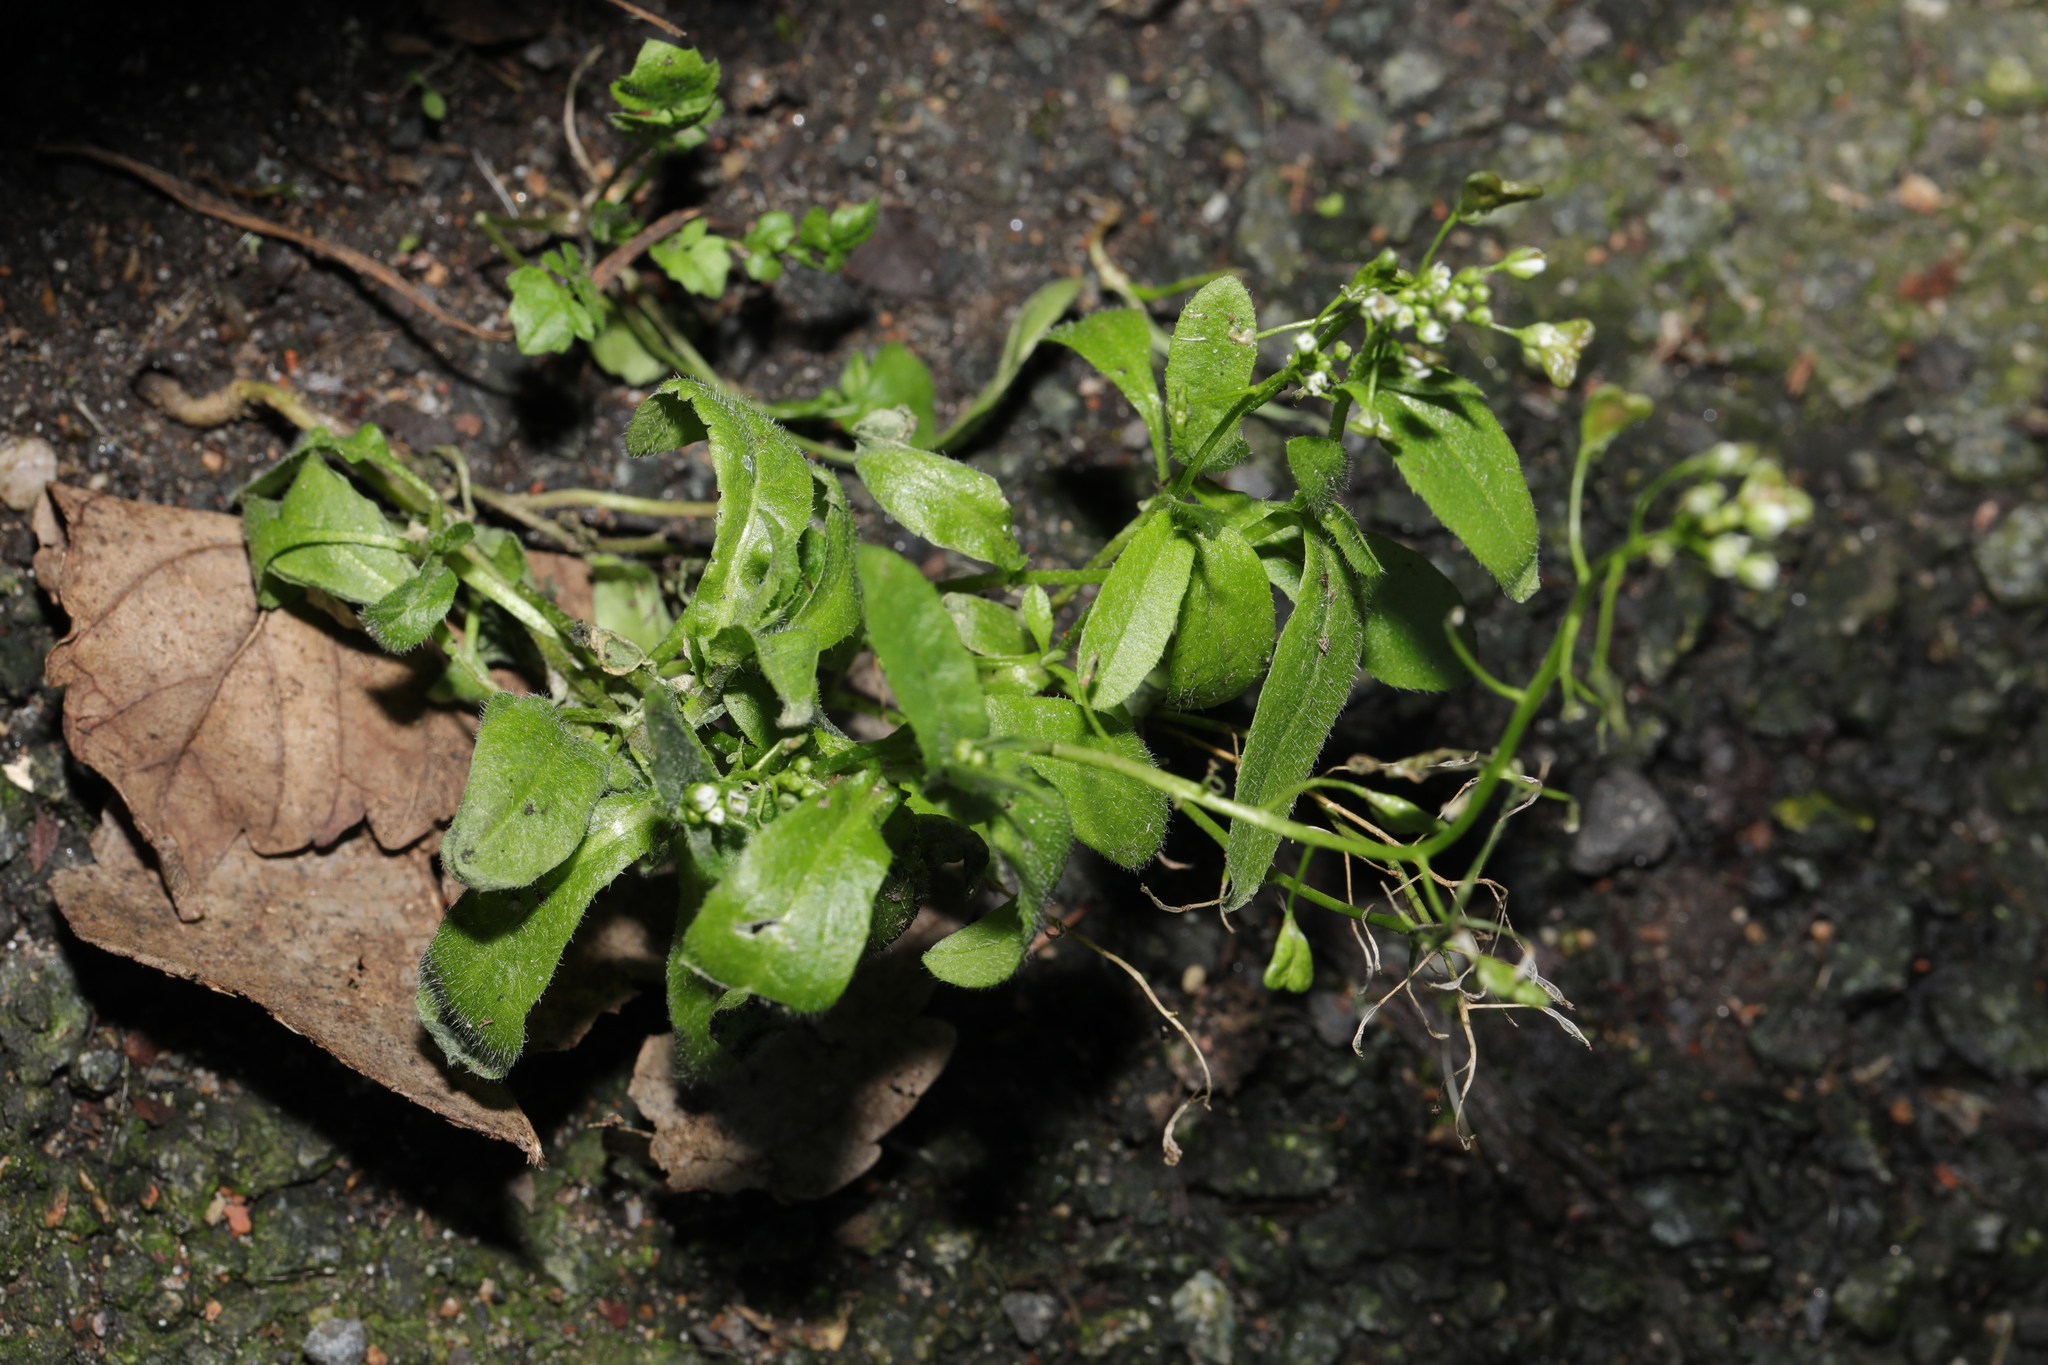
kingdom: Plantae
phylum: Tracheophyta
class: Magnoliopsida
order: Brassicales
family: Brassicaceae
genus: Capsella
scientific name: Capsella bursa-pastoris
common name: Shepherd's purse
